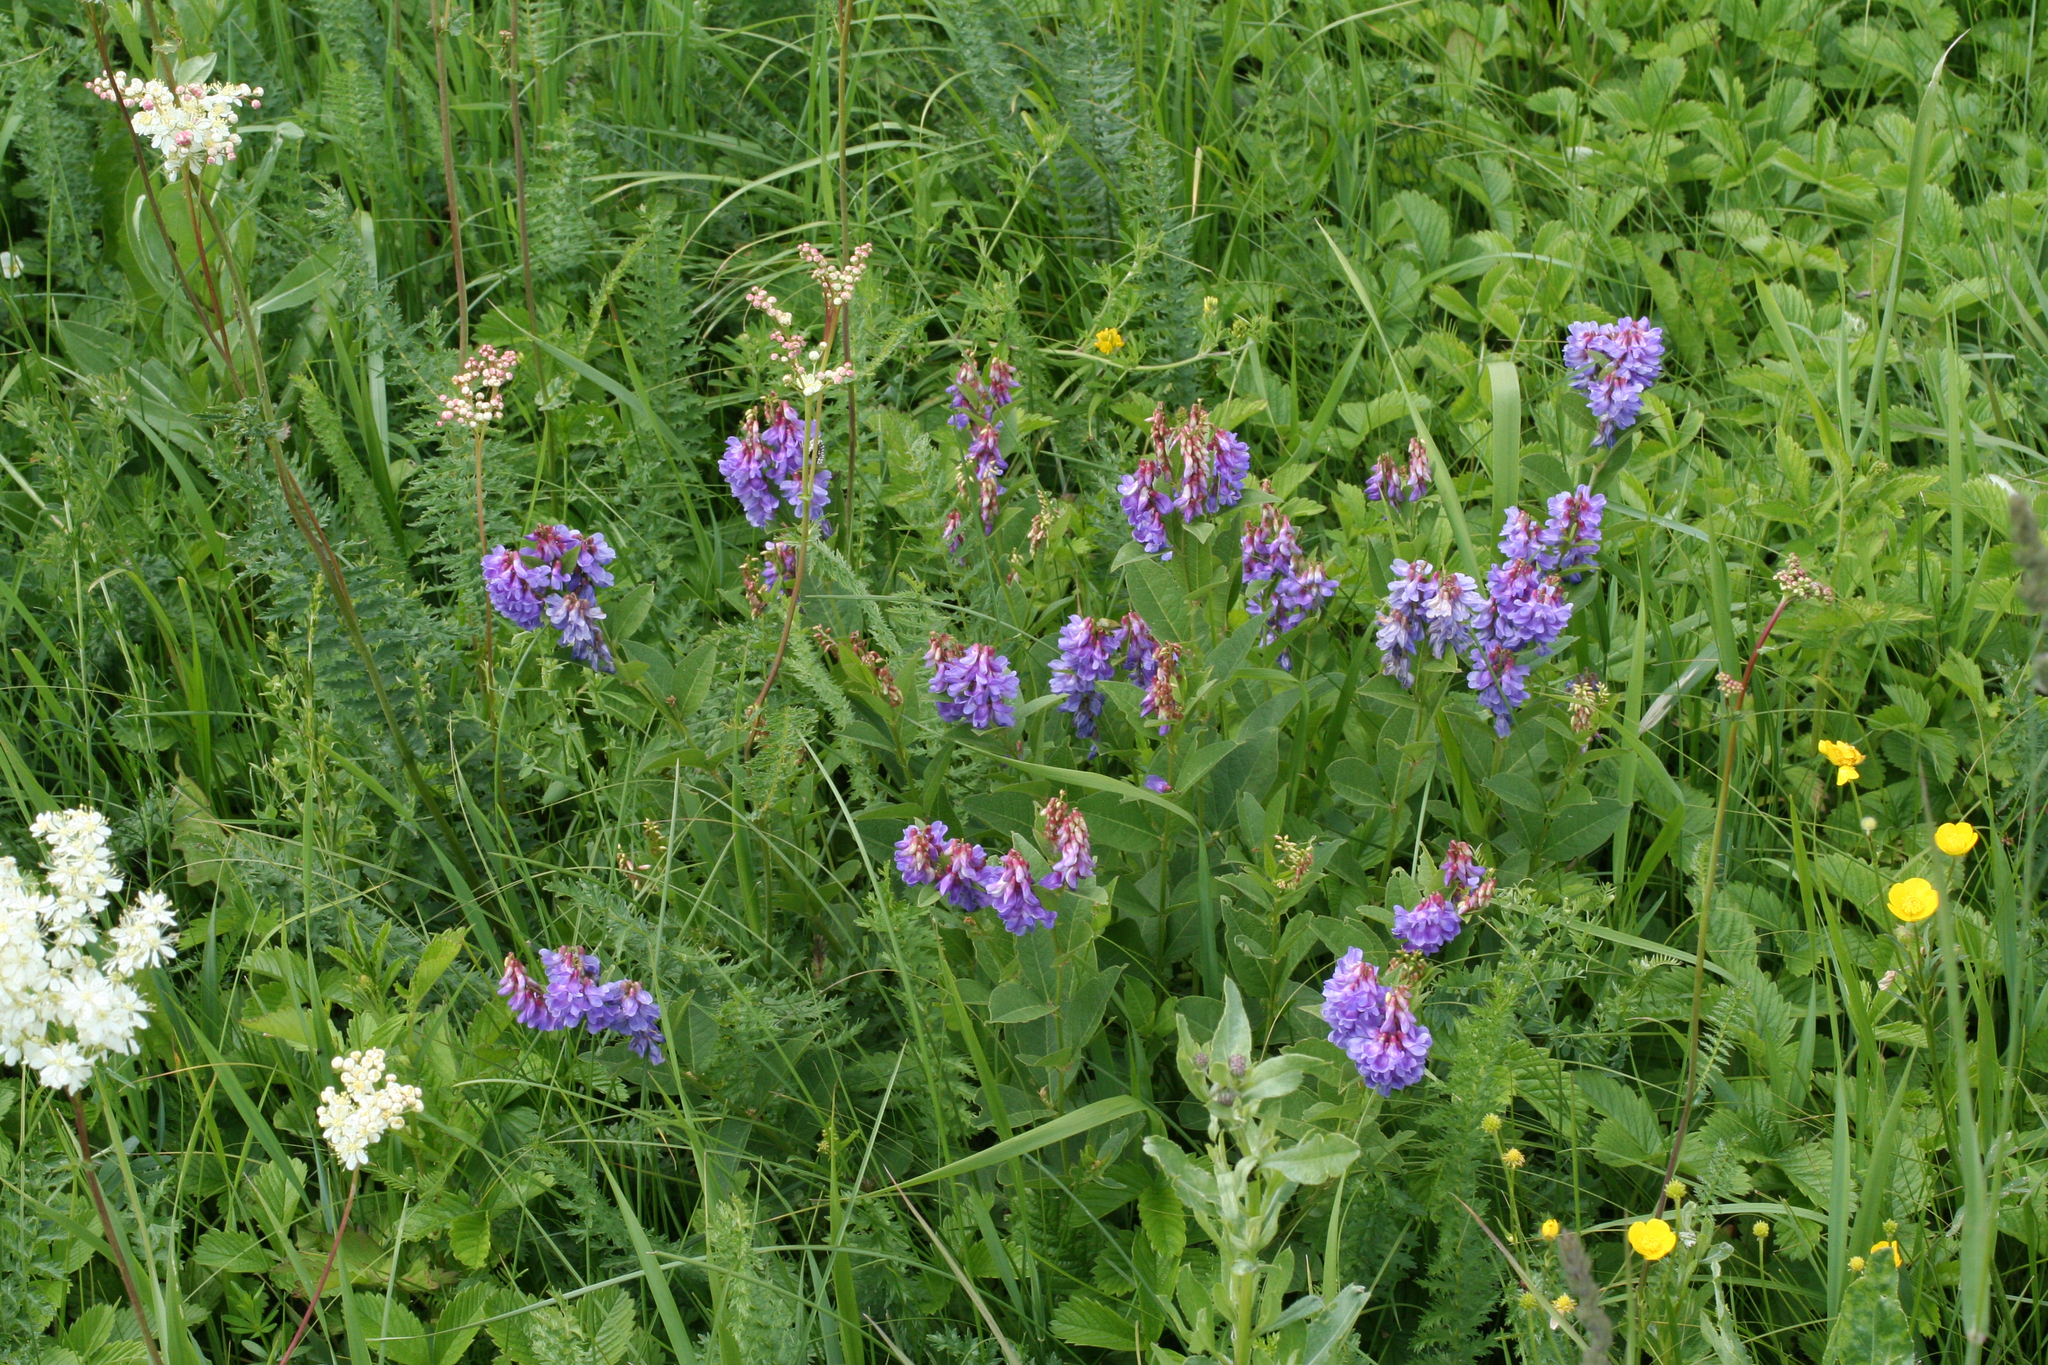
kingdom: Plantae
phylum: Tracheophyta
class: Magnoliopsida
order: Fabales
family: Fabaceae
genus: Vicia
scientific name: Vicia unijuga
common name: Two-leaf vetch
